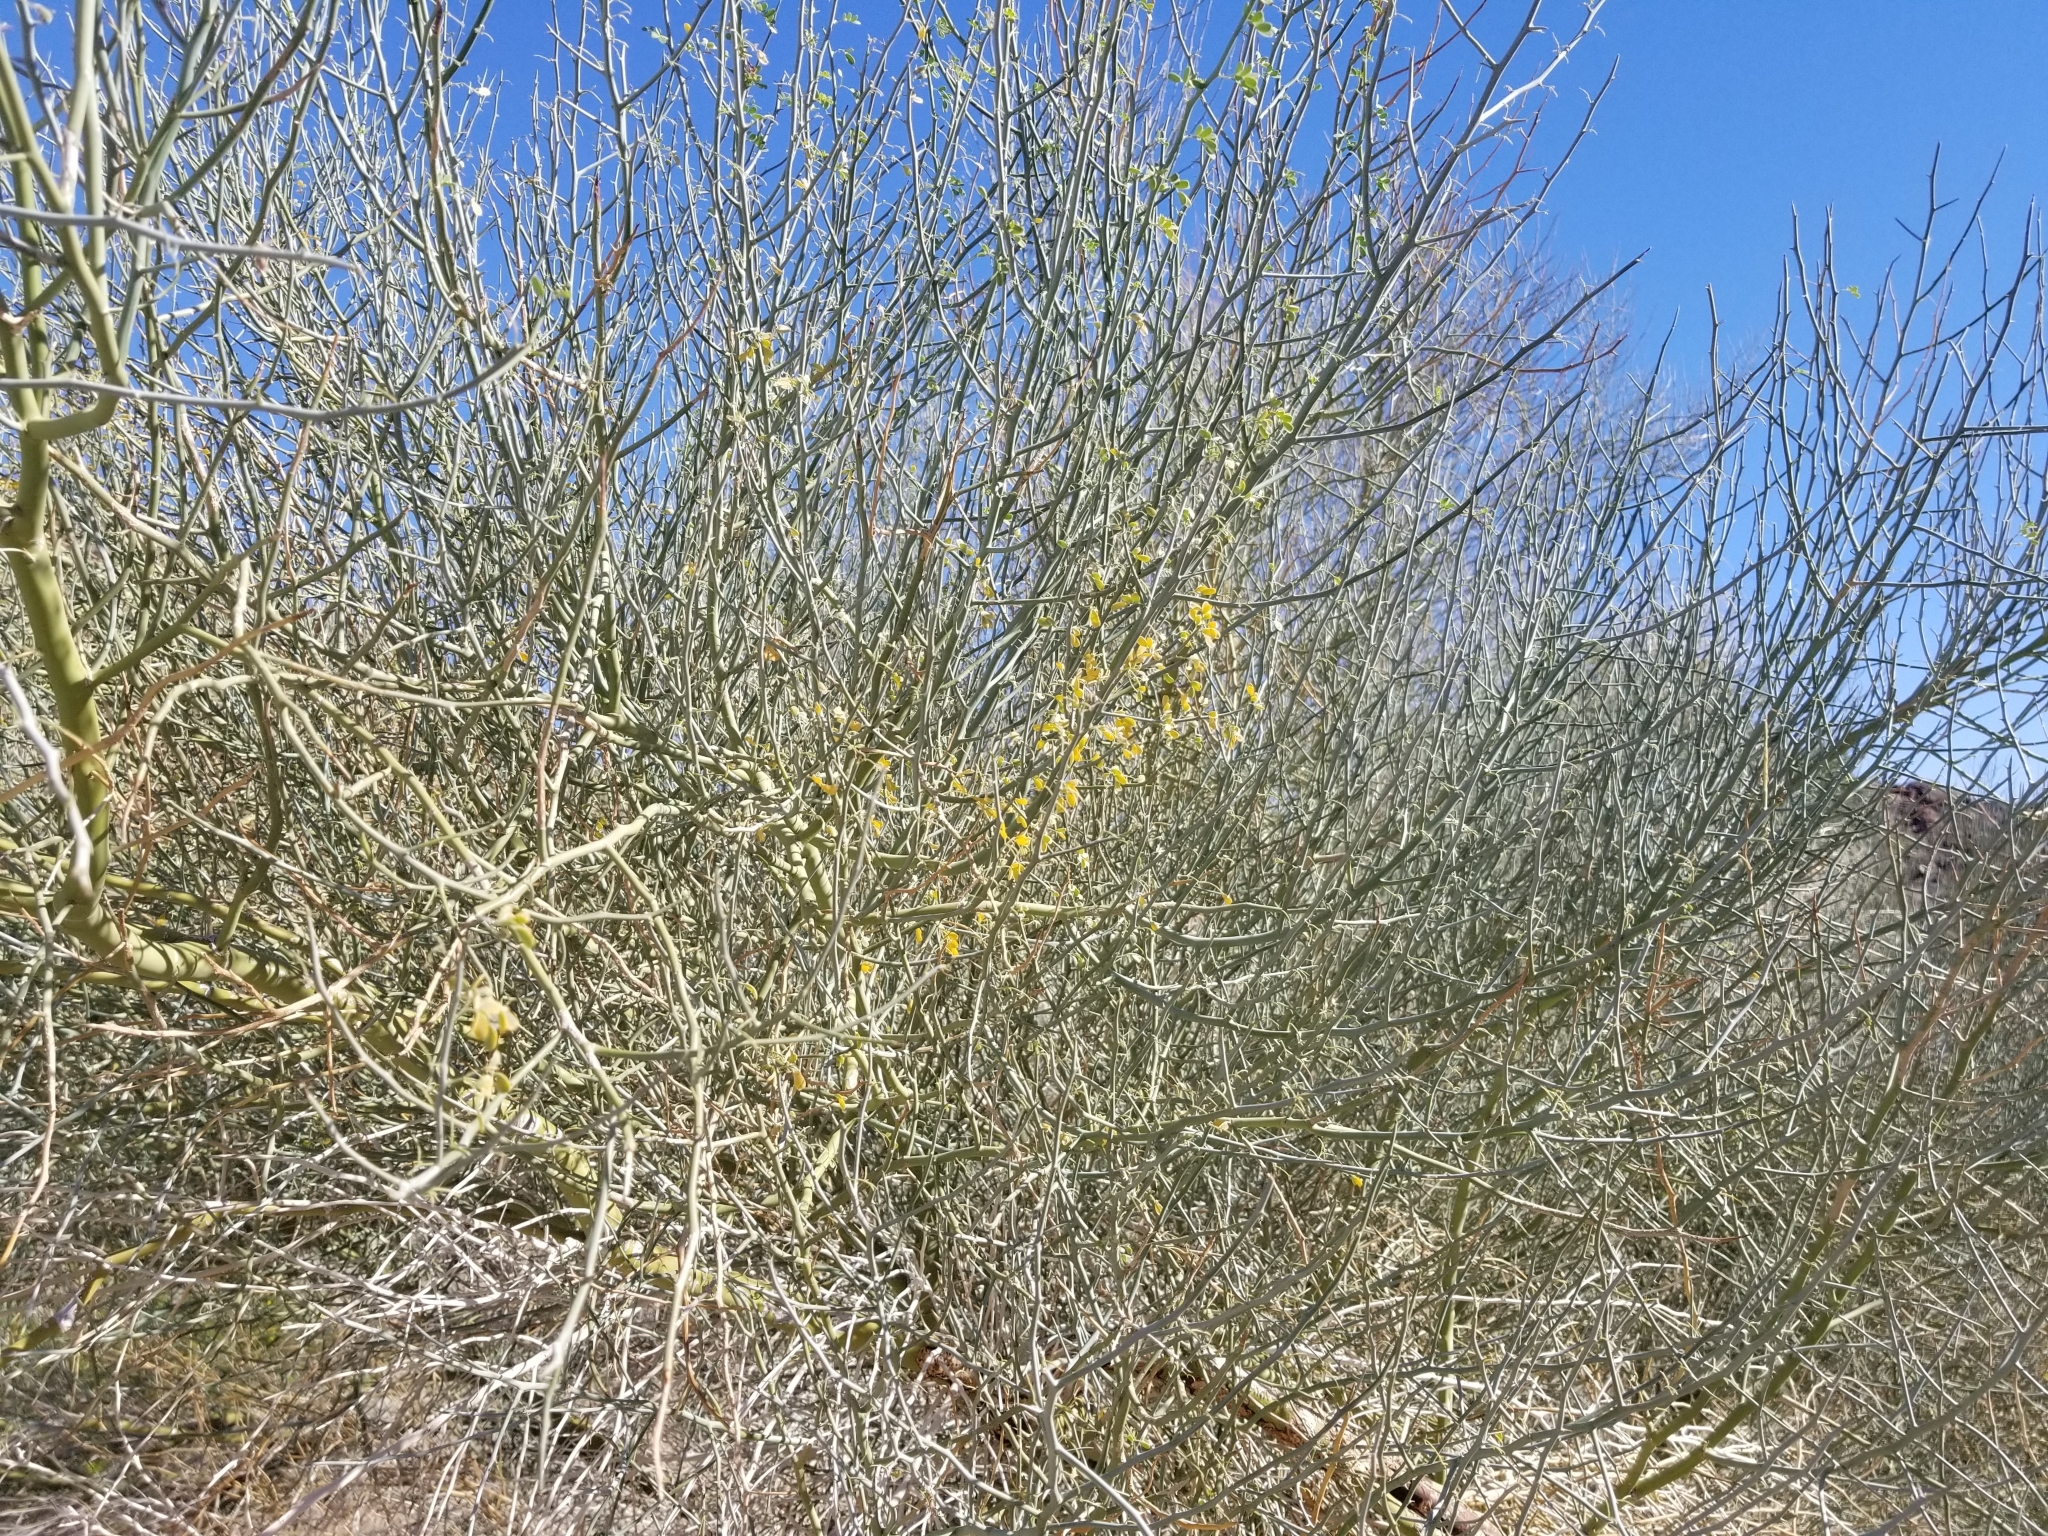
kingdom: Plantae
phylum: Tracheophyta
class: Magnoliopsida
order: Fabales
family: Fabaceae
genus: Parkinsonia
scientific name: Parkinsonia florida
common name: Blue paloverde
